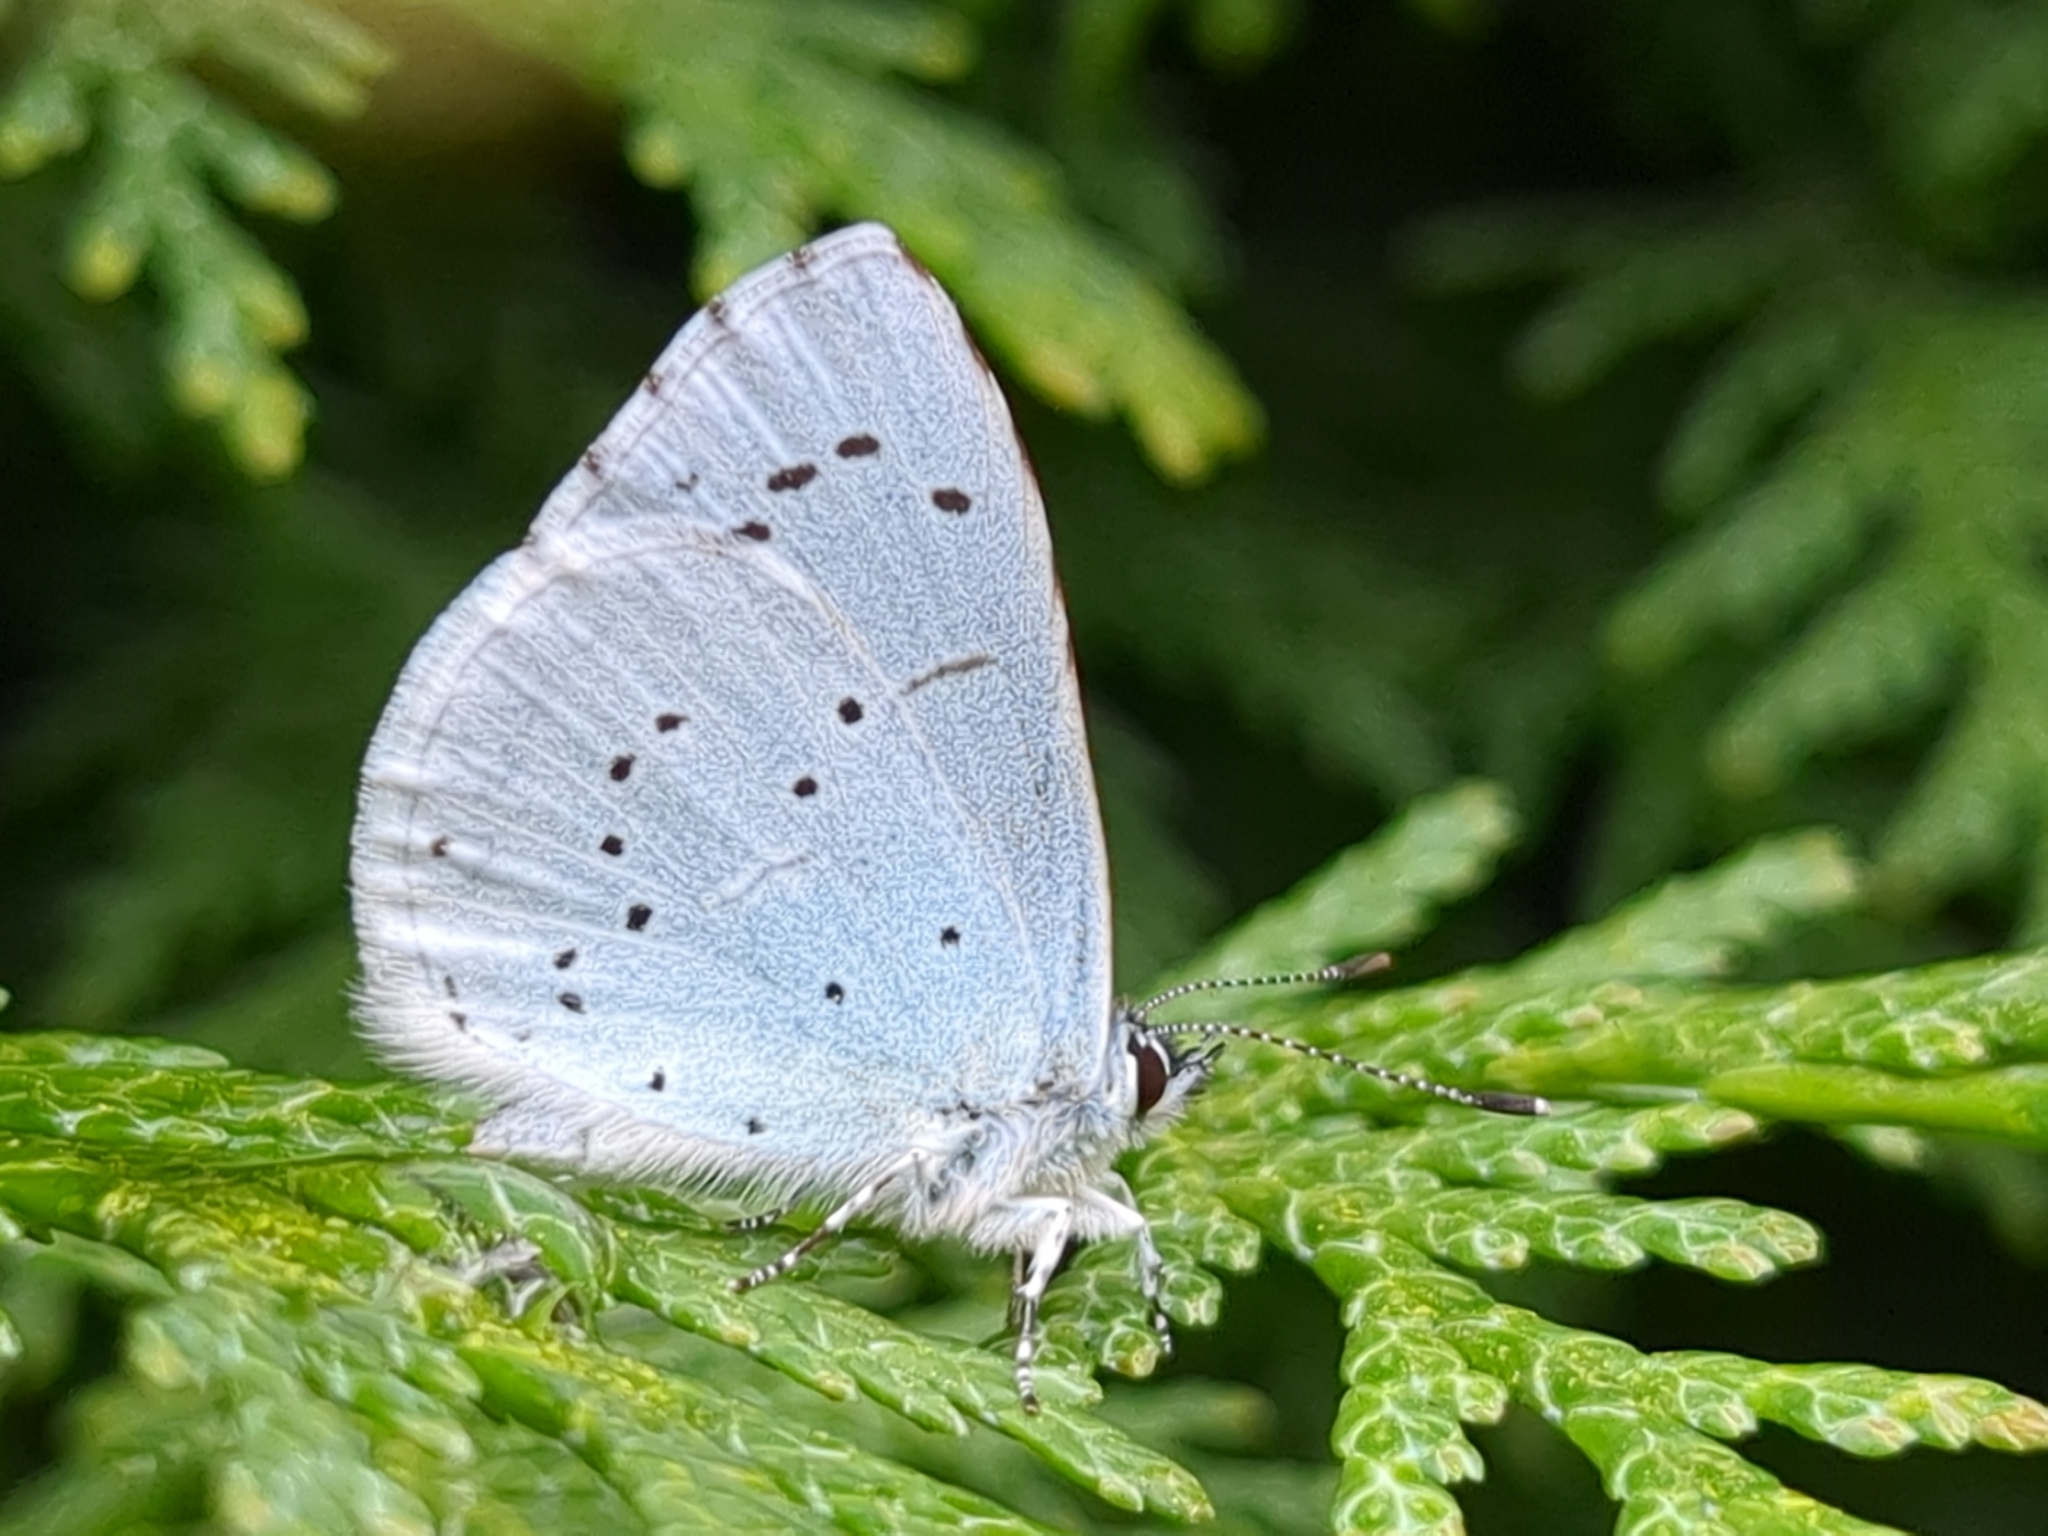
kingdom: Animalia
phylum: Arthropoda
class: Insecta
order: Lepidoptera
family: Lycaenidae
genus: Celastrina
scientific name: Celastrina argiolus
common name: Holly blue
